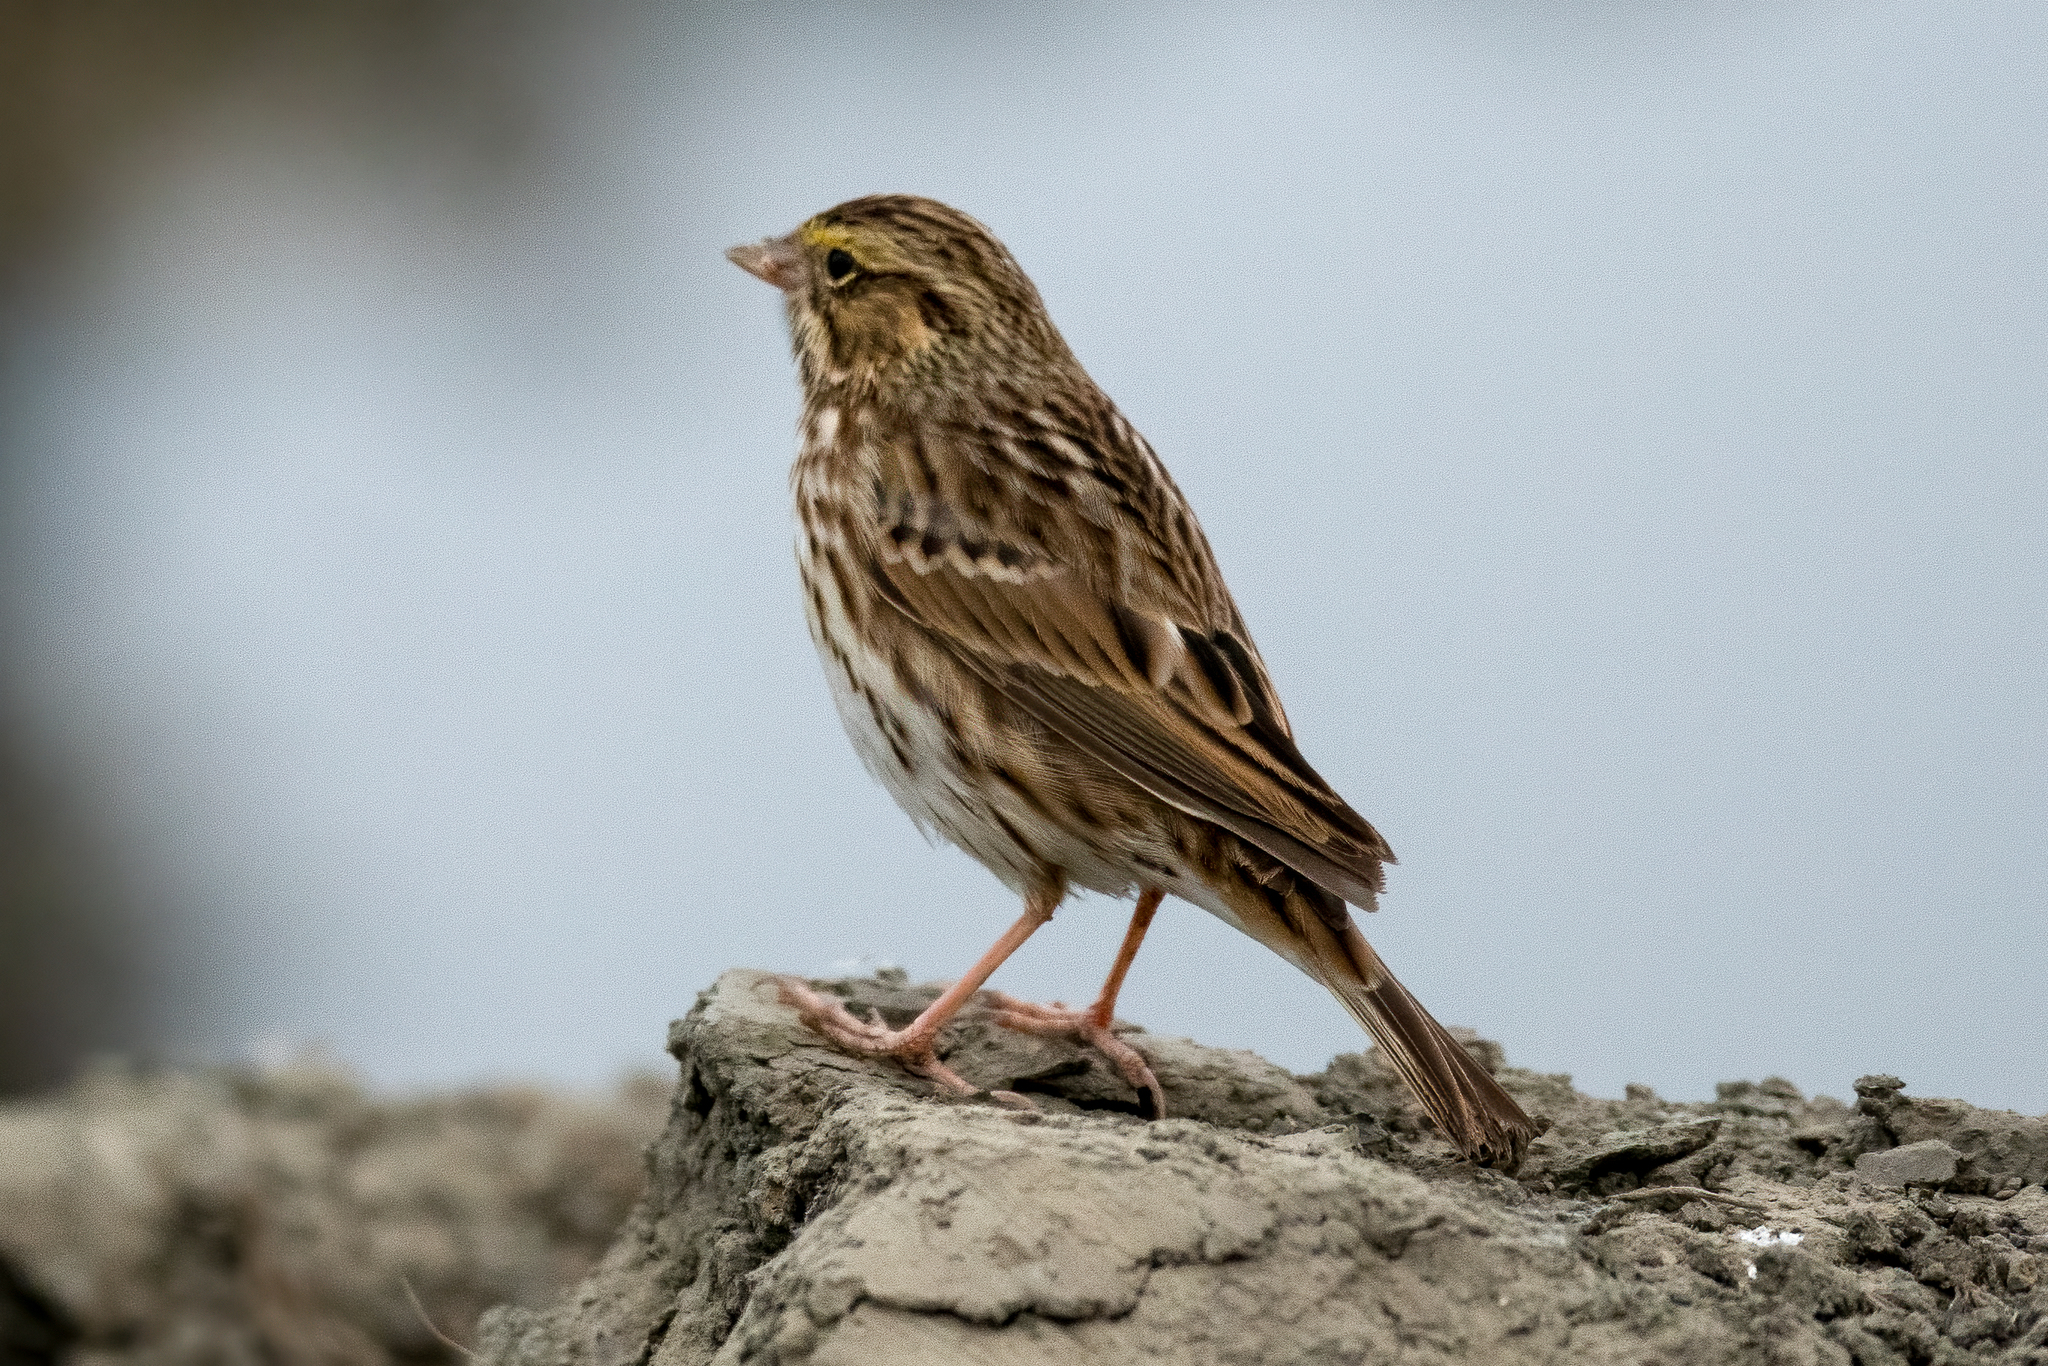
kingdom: Animalia
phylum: Chordata
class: Aves
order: Passeriformes
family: Passerellidae
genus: Passerculus
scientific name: Passerculus sandwichensis
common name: Savannah sparrow
